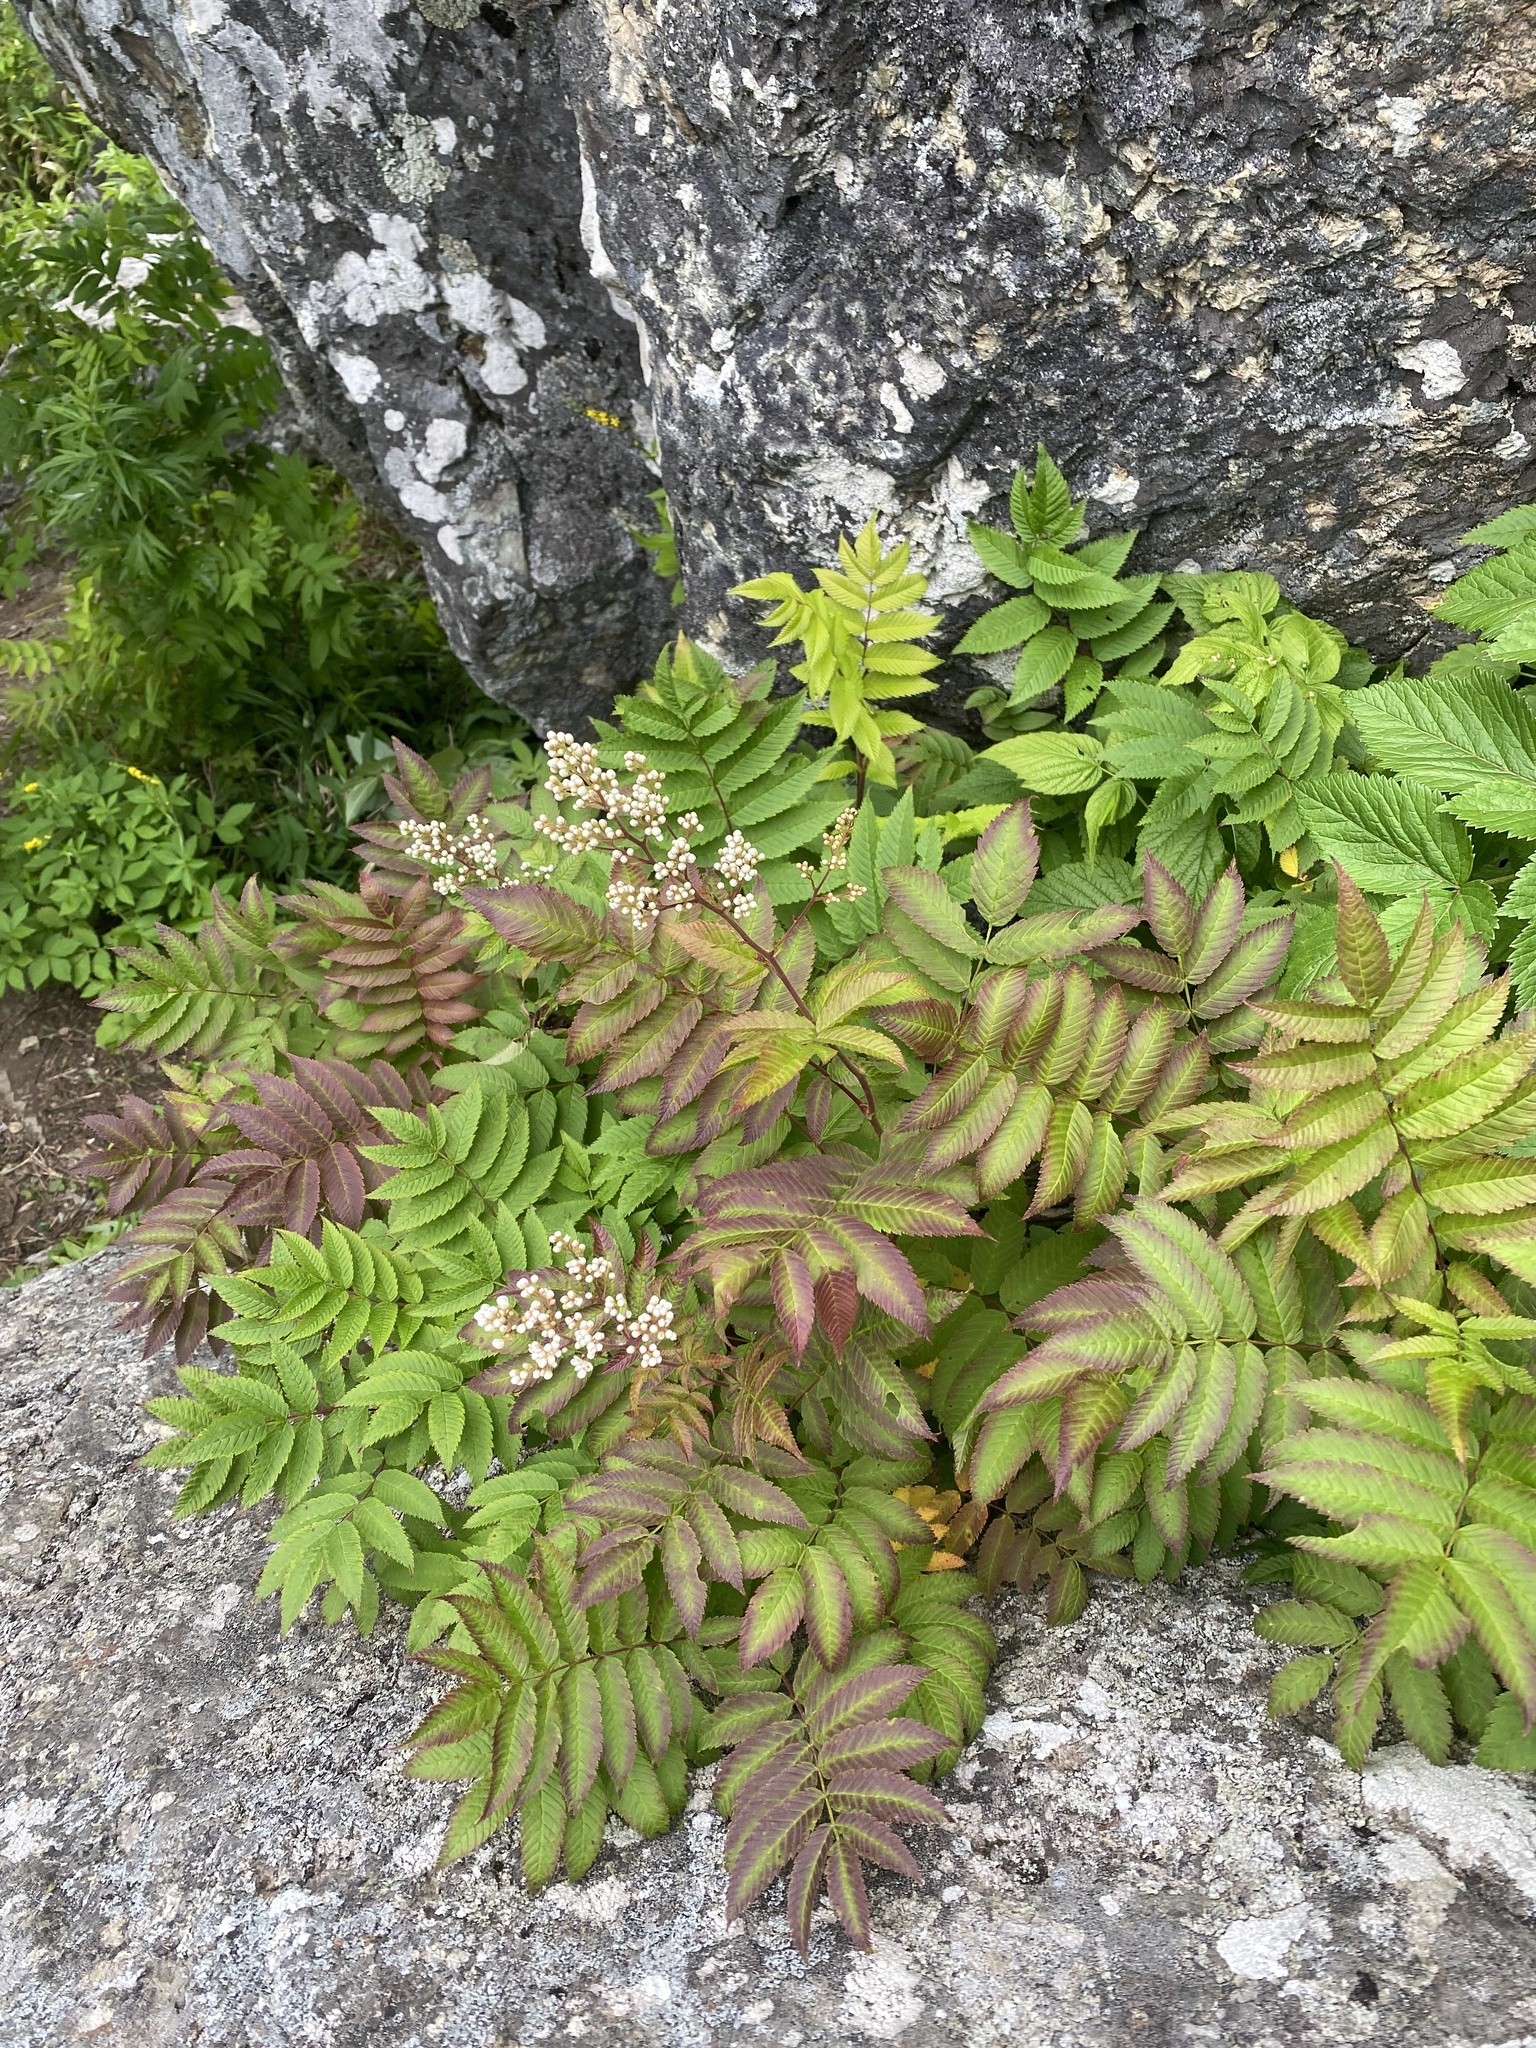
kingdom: Plantae
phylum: Tracheophyta
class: Magnoliopsida
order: Rosales
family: Rosaceae
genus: Sorbaria
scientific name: Sorbaria sorbifolia
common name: False spiraea
